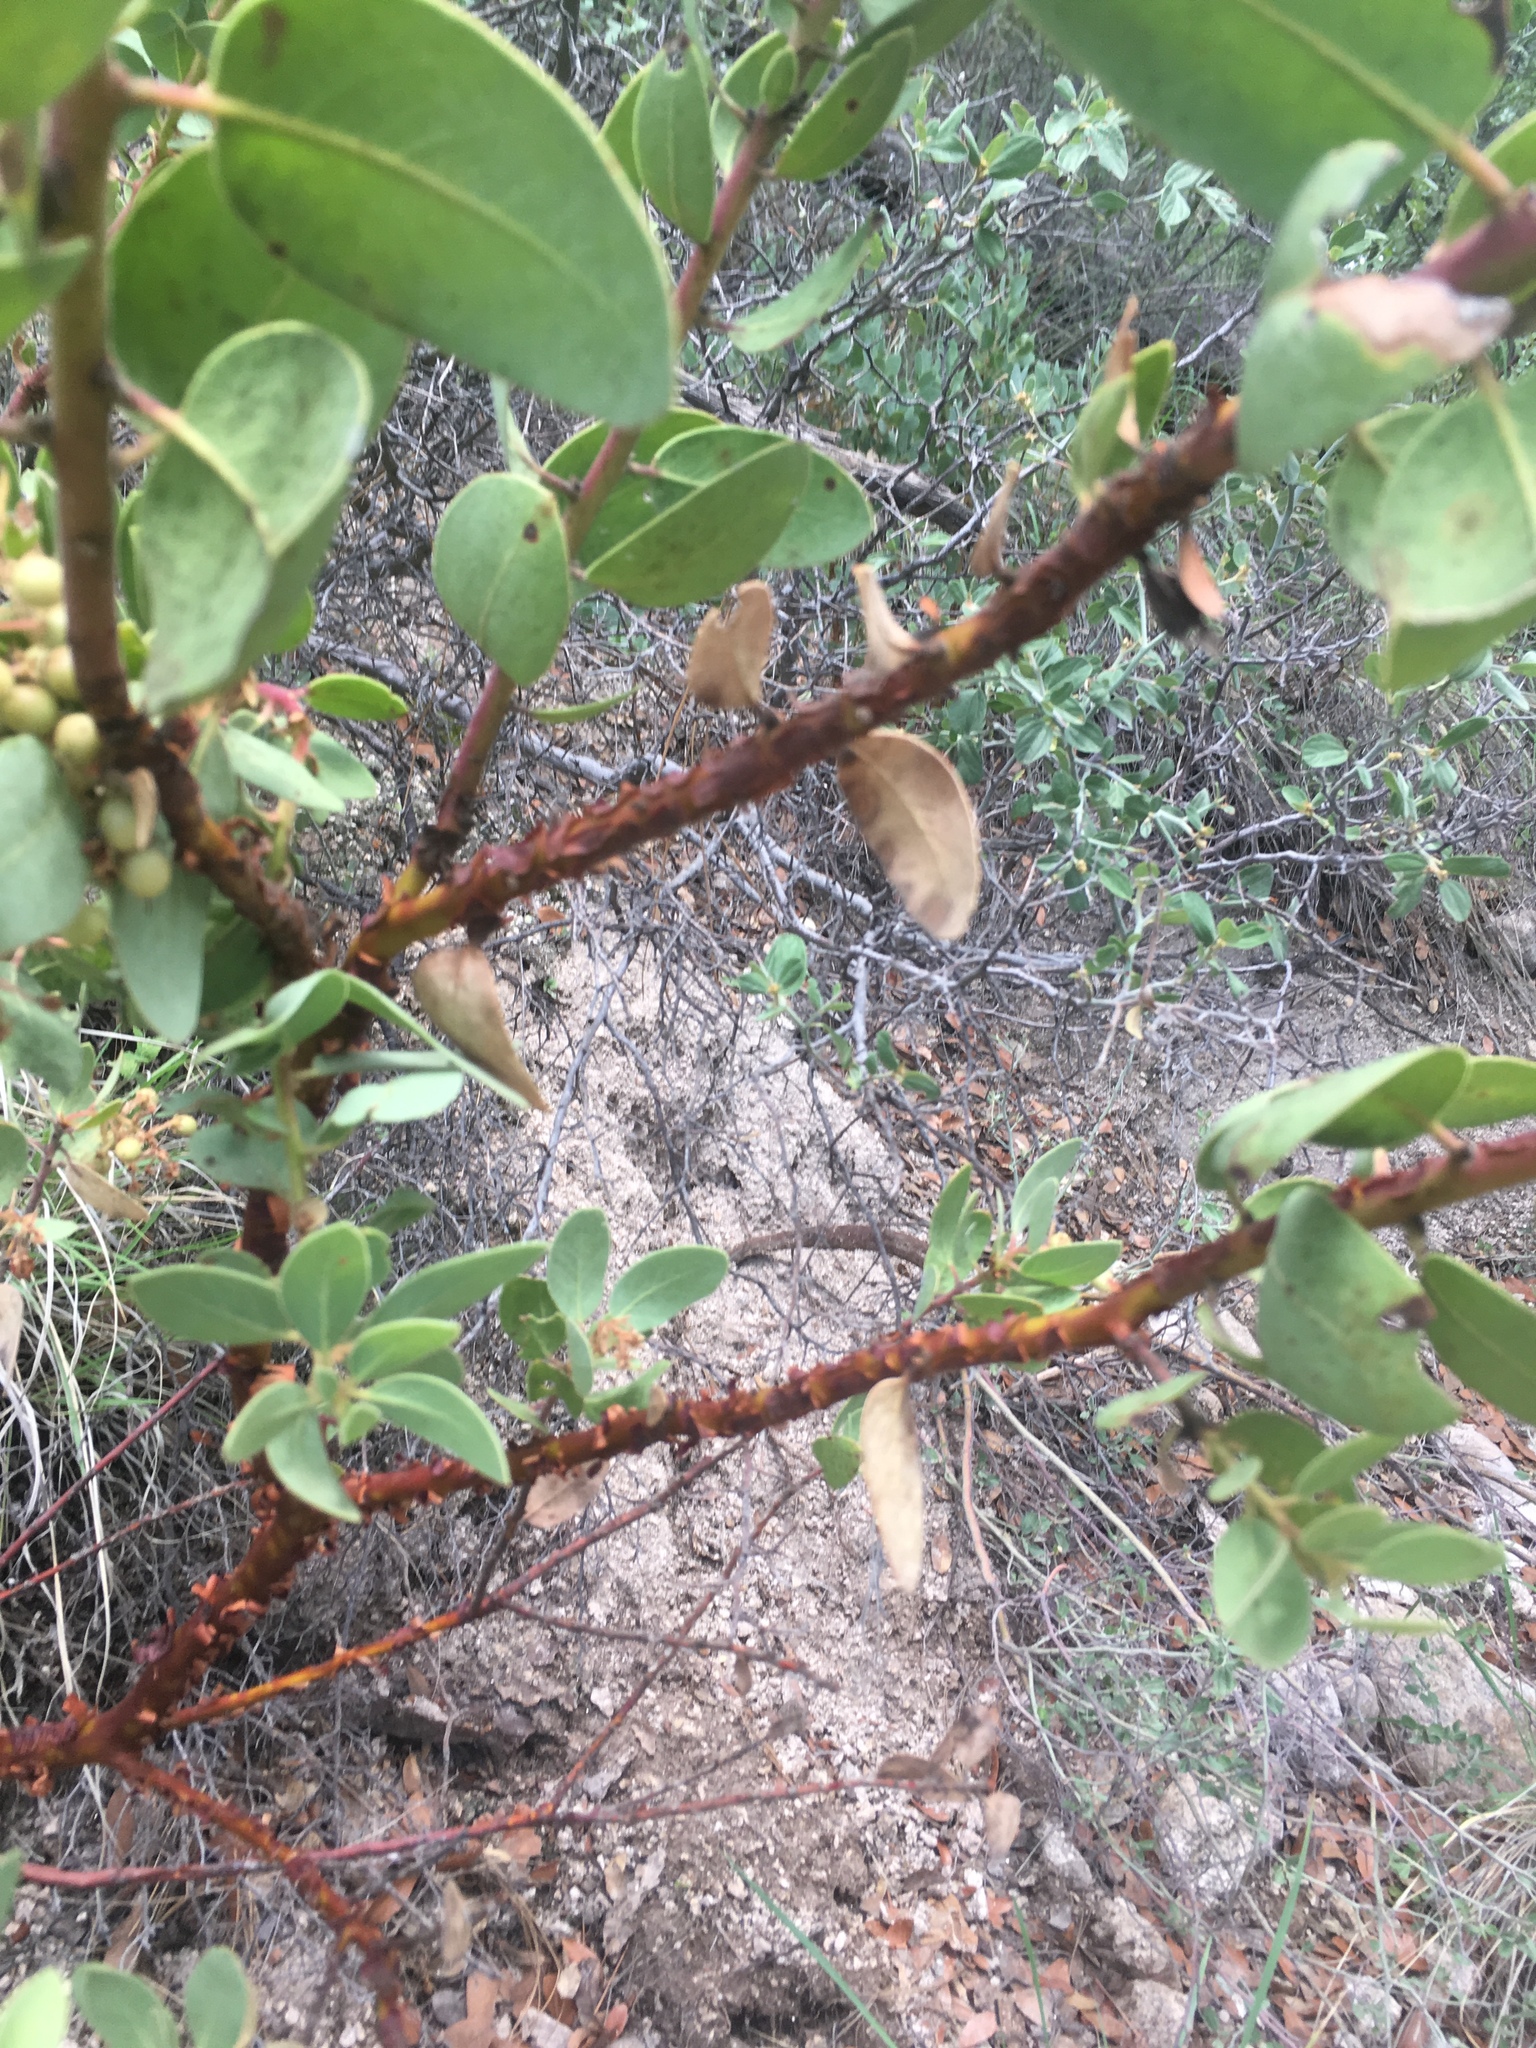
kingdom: Plantae
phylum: Tracheophyta
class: Magnoliopsida
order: Ericales
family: Ericaceae
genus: Arctostaphylos
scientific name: Arctostaphylos pringlei
